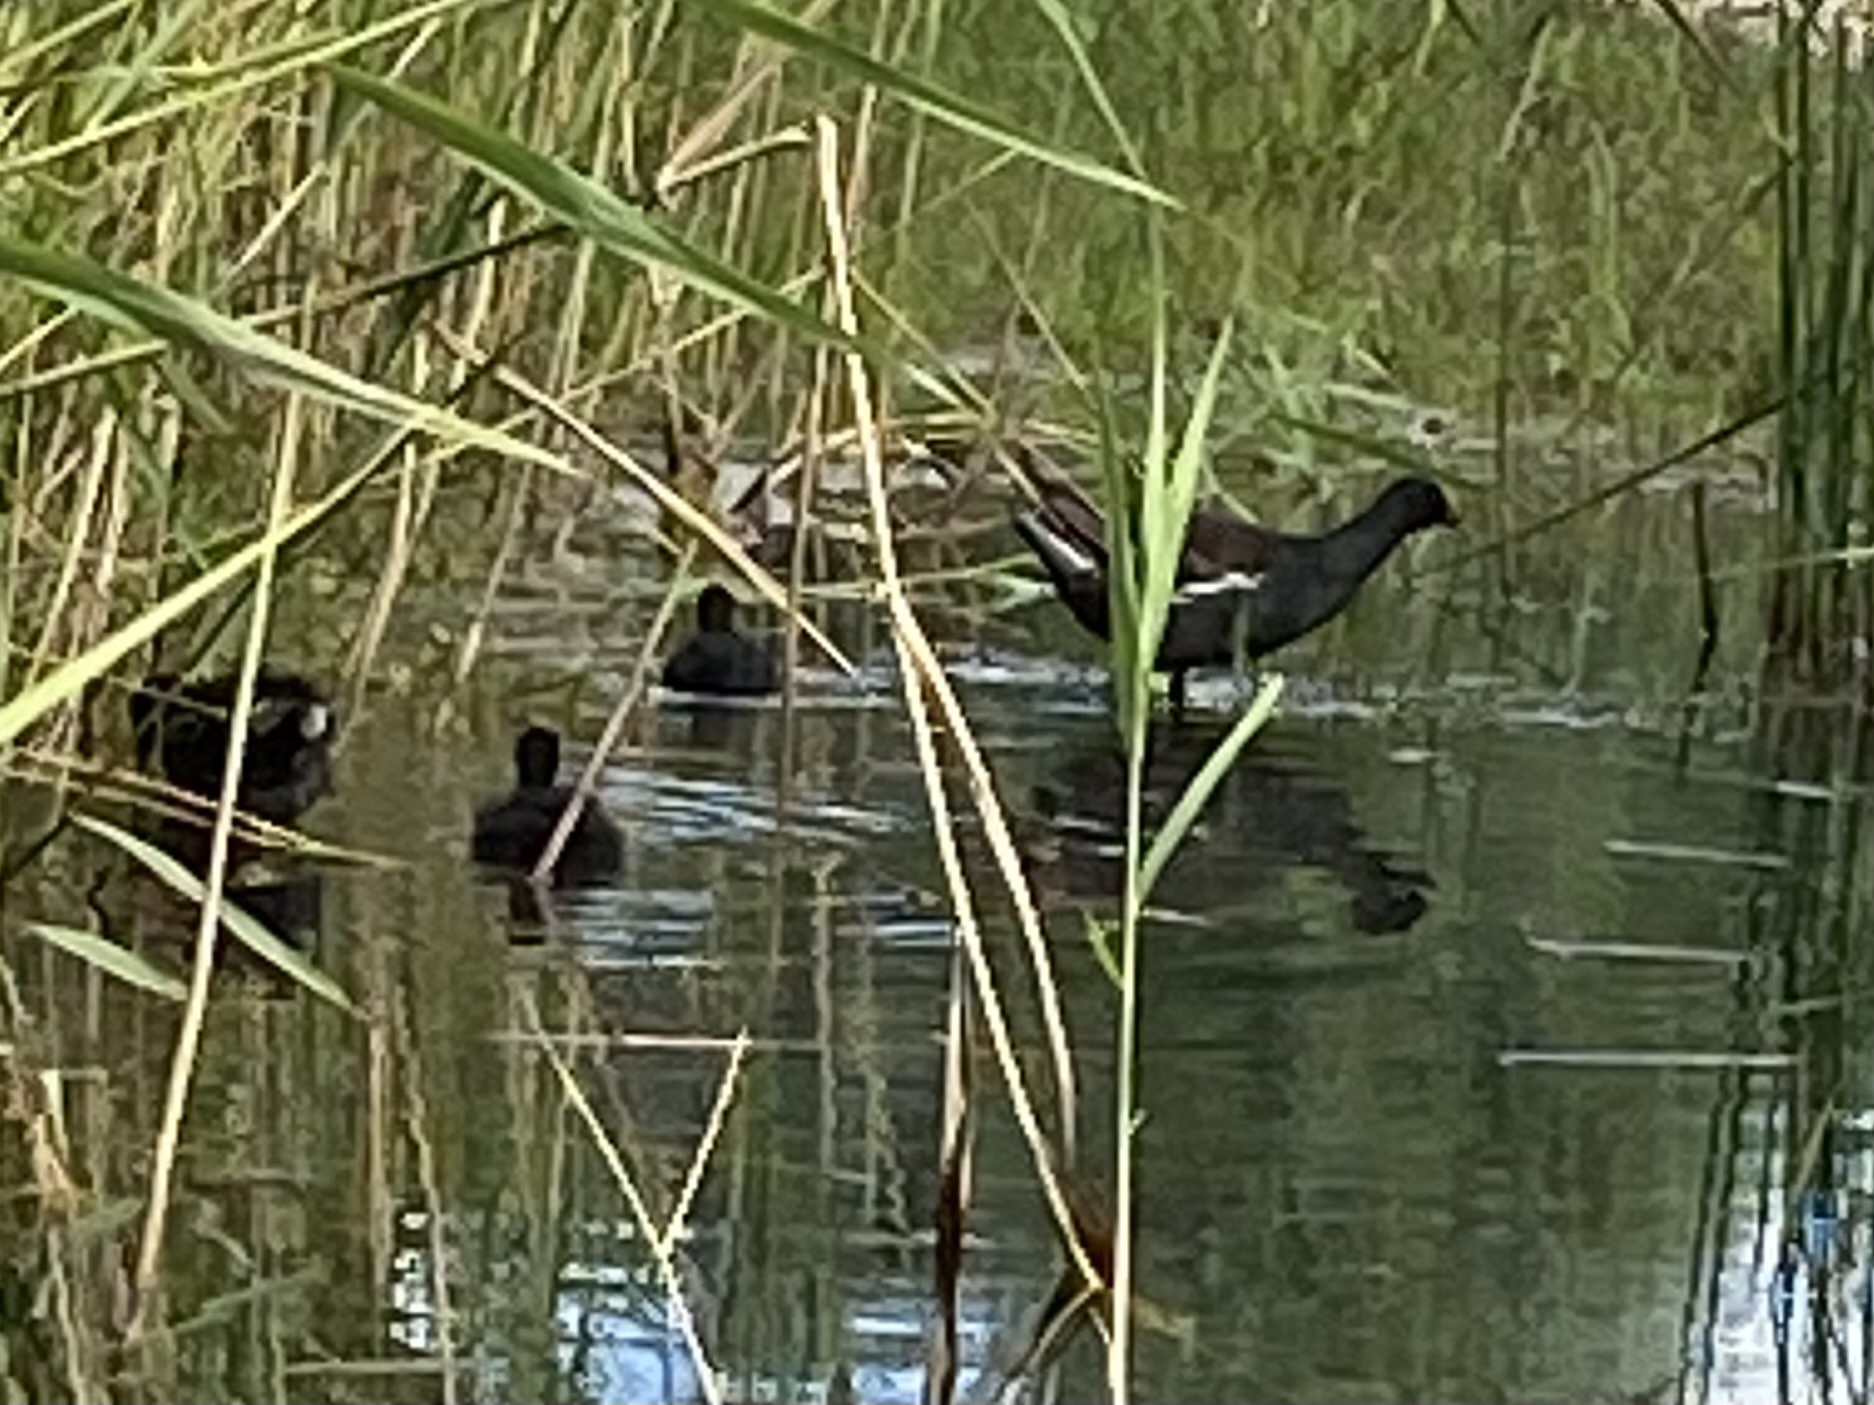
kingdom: Animalia
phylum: Chordata
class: Aves
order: Gruiformes
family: Rallidae
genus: Gallinula
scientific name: Gallinula chloropus
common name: Common moorhen
